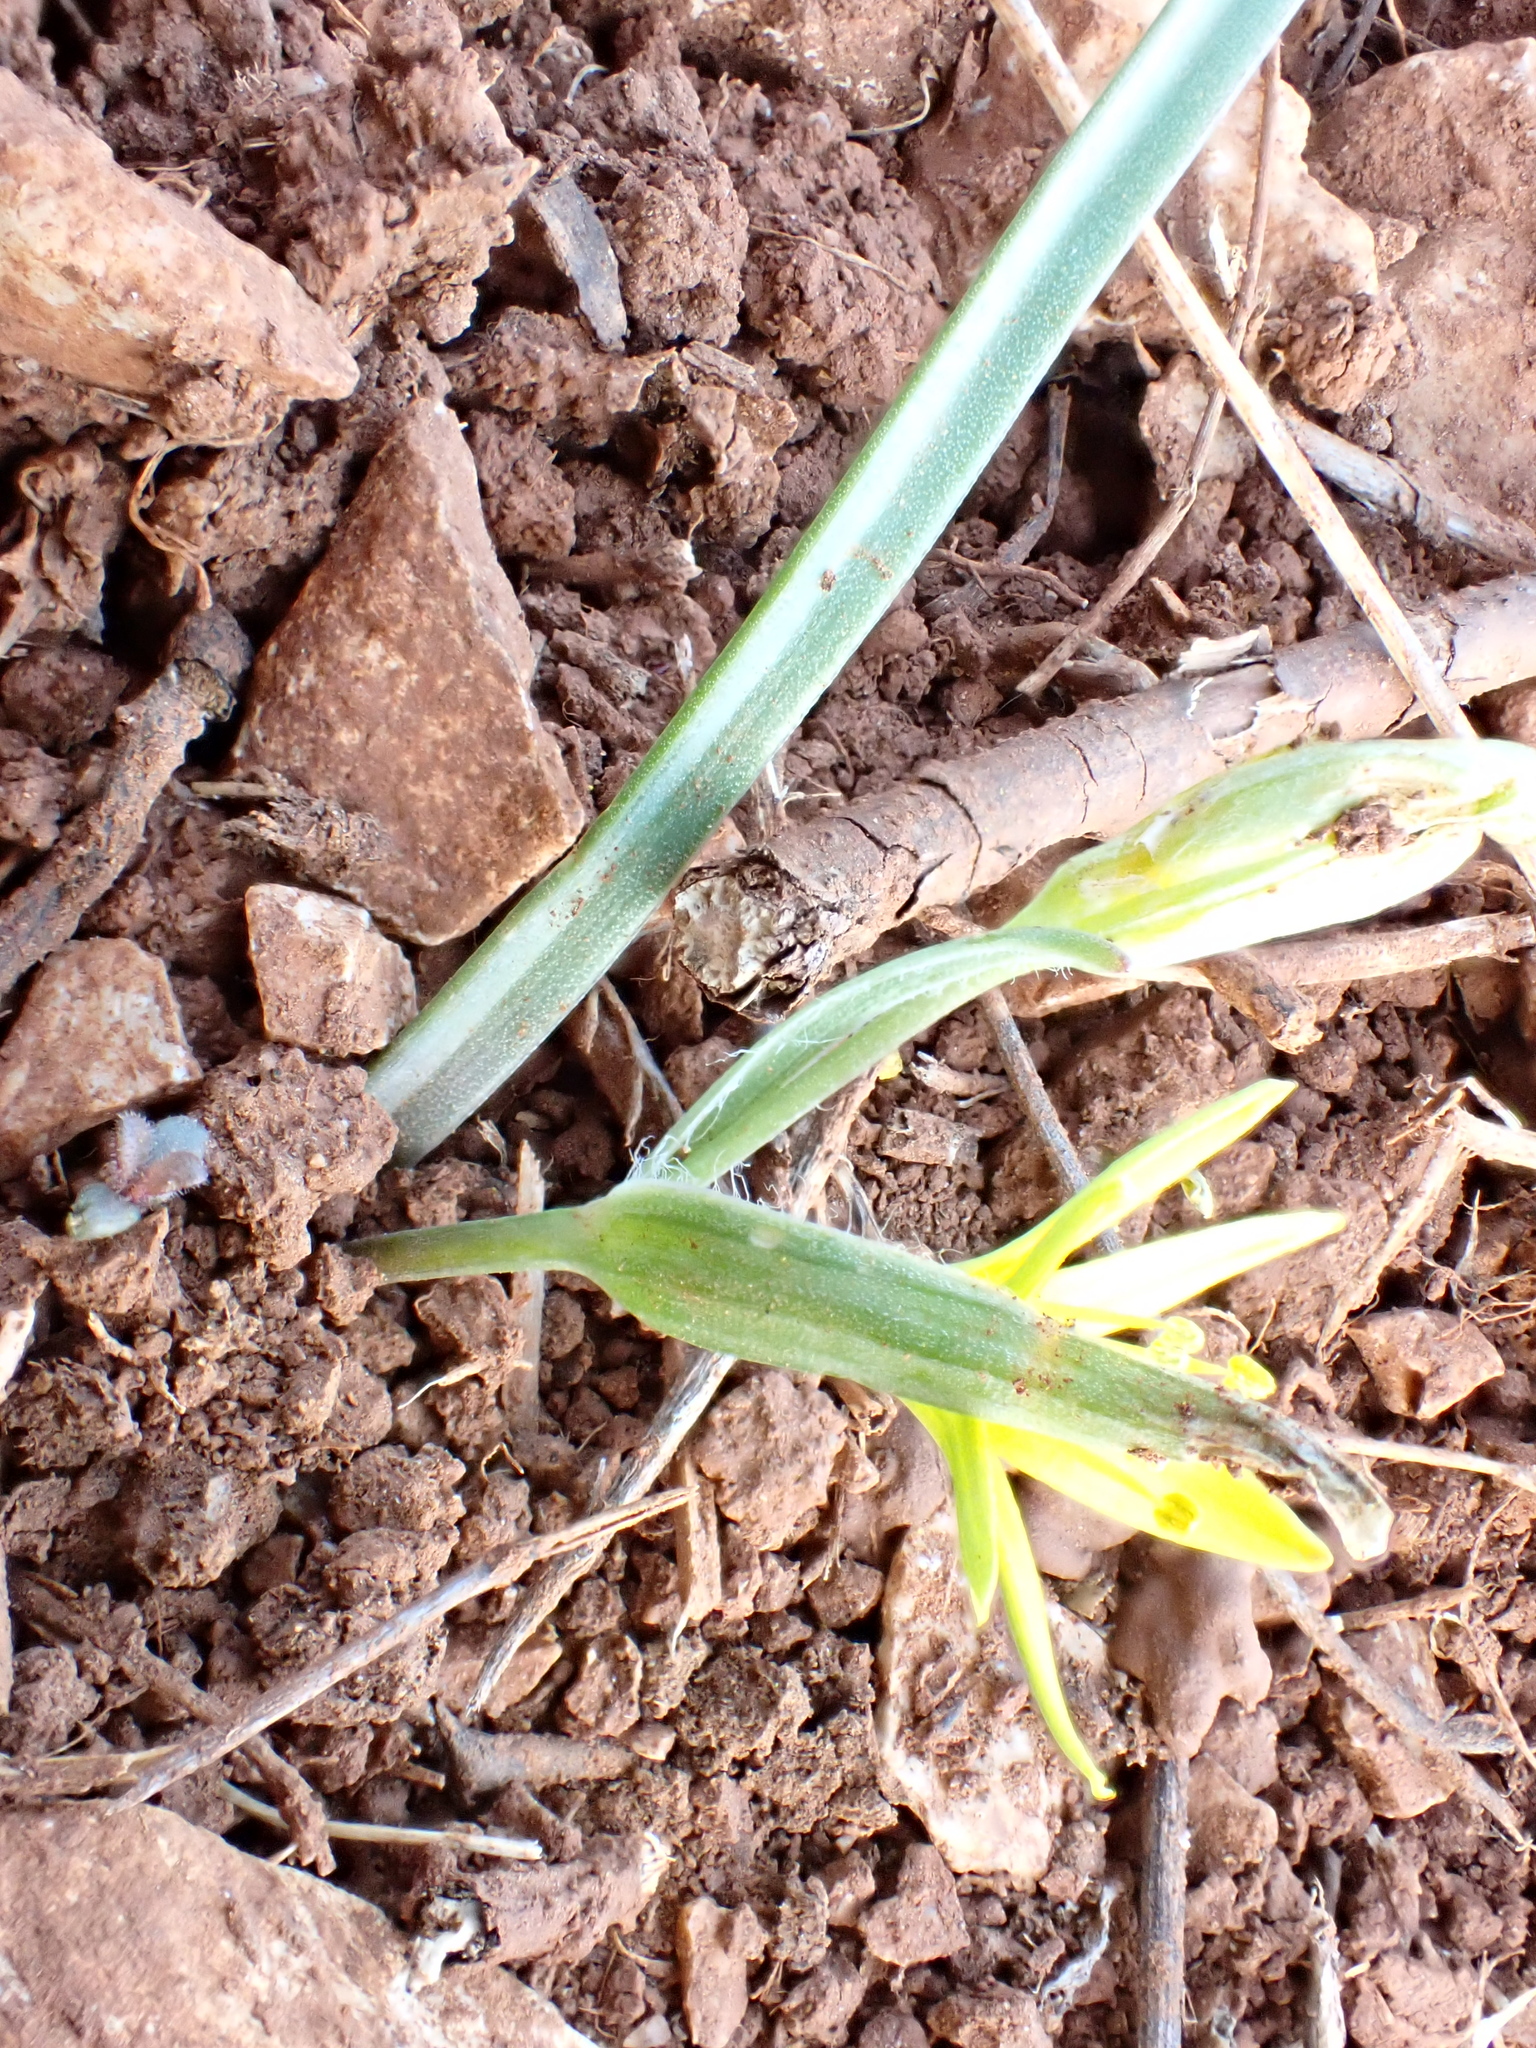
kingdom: Plantae
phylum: Tracheophyta
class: Liliopsida
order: Liliales
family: Liliaceae
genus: Gagea
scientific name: Gagea pratensis
